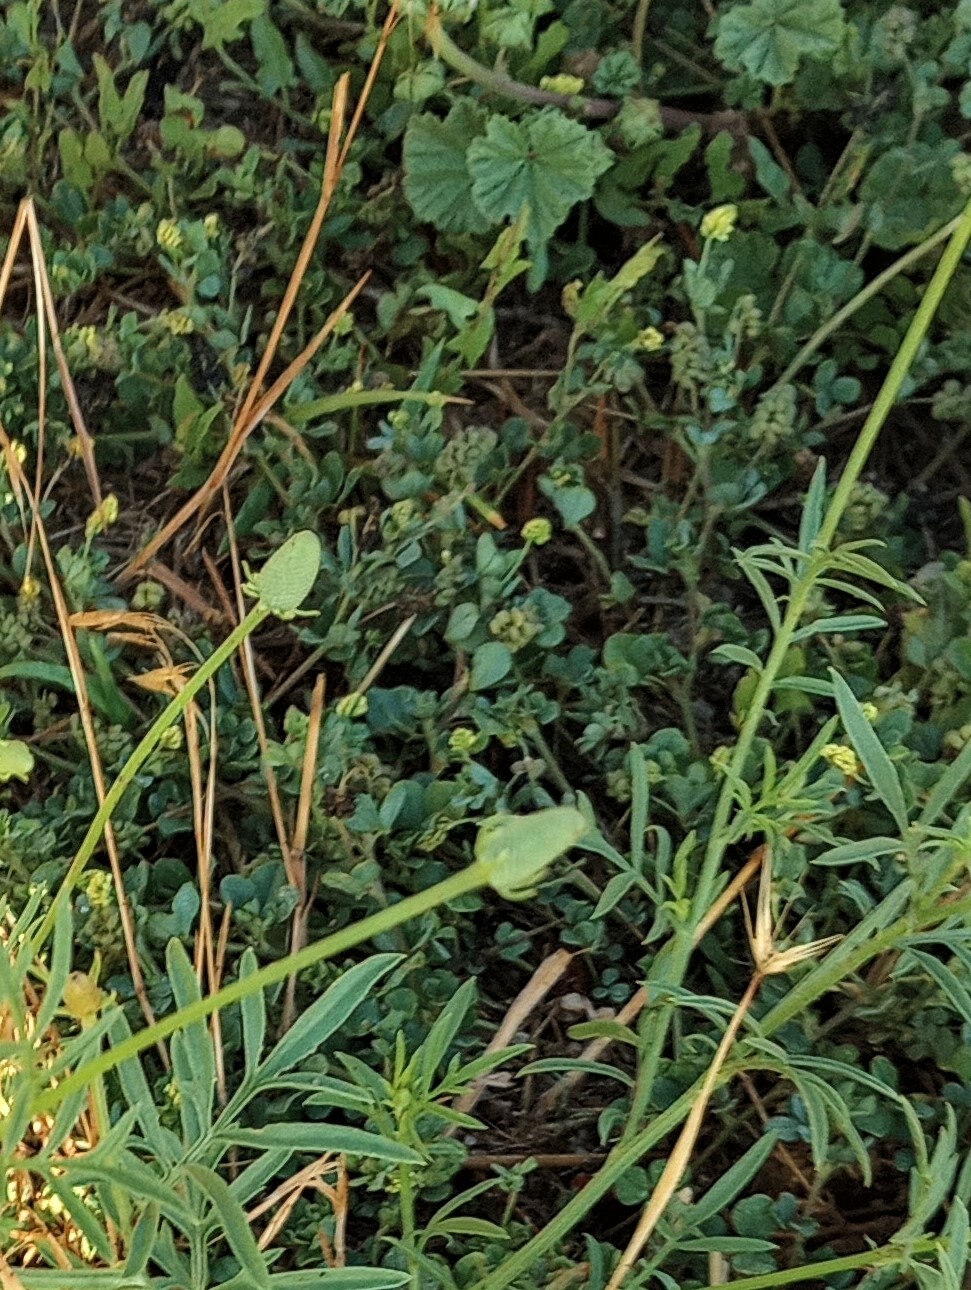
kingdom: Plantae
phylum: Tracheophyta
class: Magnoliopsida
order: Fabales
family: Fabaceae
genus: Medicago
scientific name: Medicago lupulina
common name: Black medick
